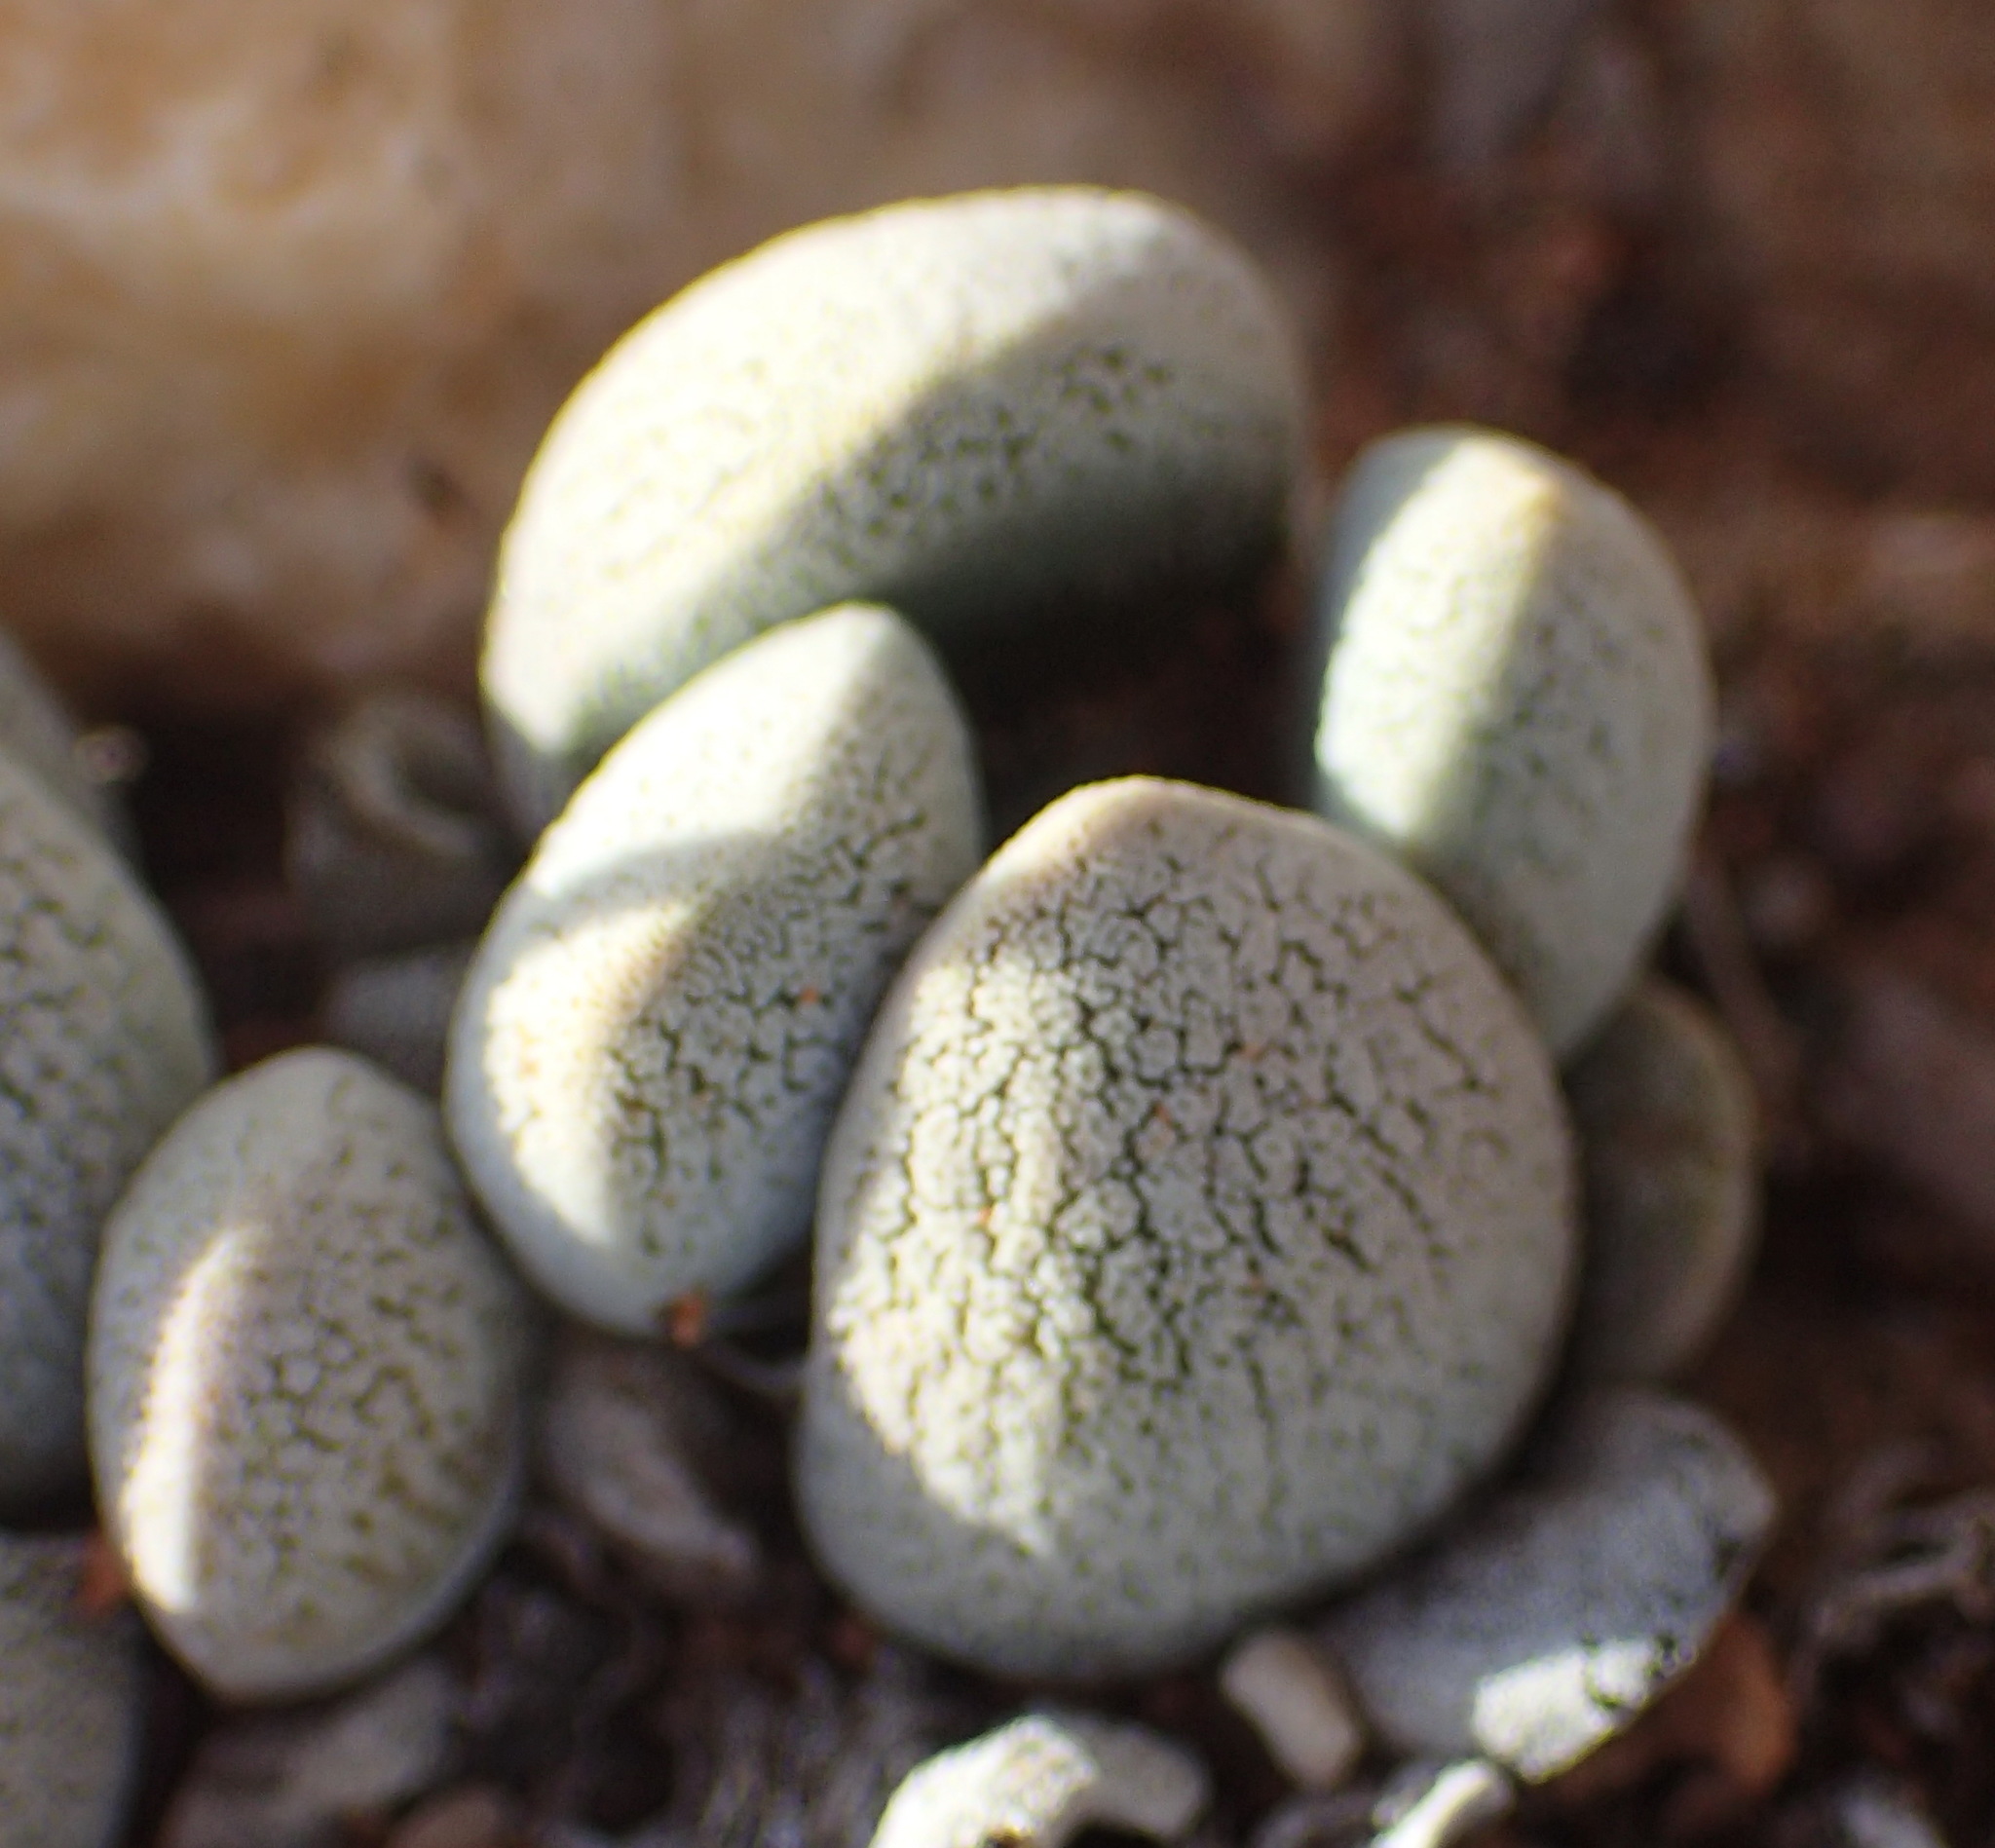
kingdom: Plantae
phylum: Tracheophyta
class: Magnoliopsida
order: Saxifragales
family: Crassulaceae
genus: Crassula
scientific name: Crassula tecta
